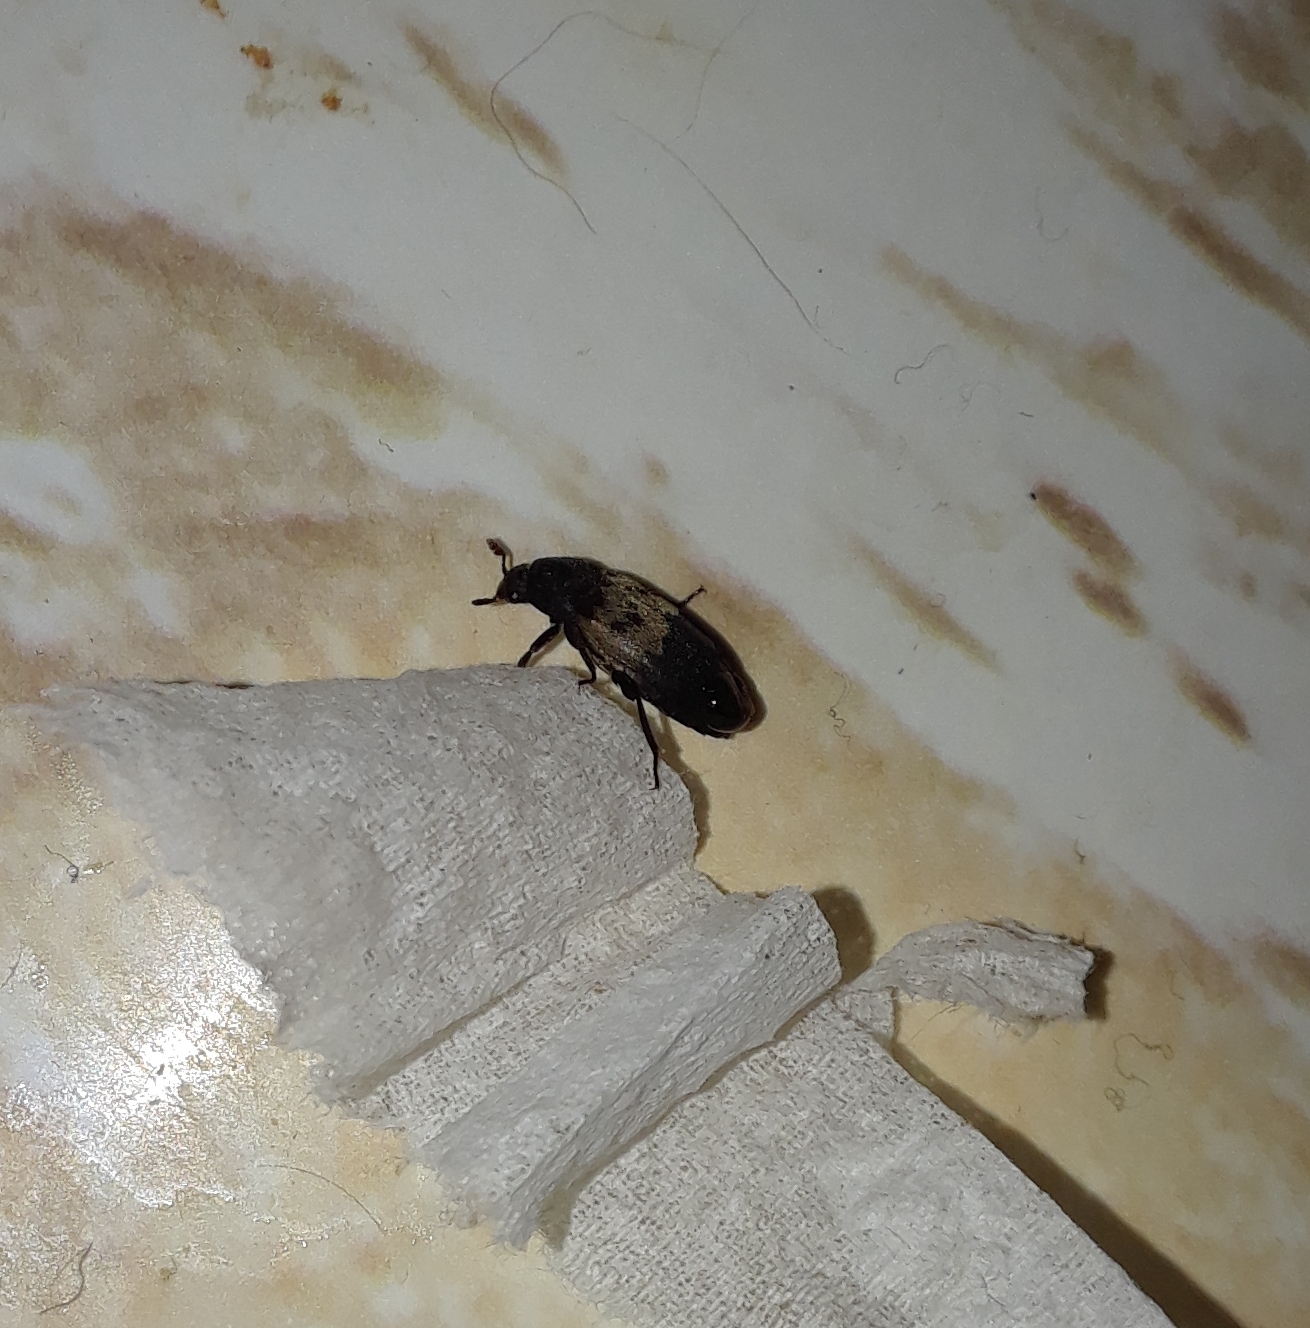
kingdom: Animalia
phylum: Arthropoda
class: Insecta
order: Coleoptera
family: Dermestidae
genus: Dermestes
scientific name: Dermestes lardarius
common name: Larder beetle
